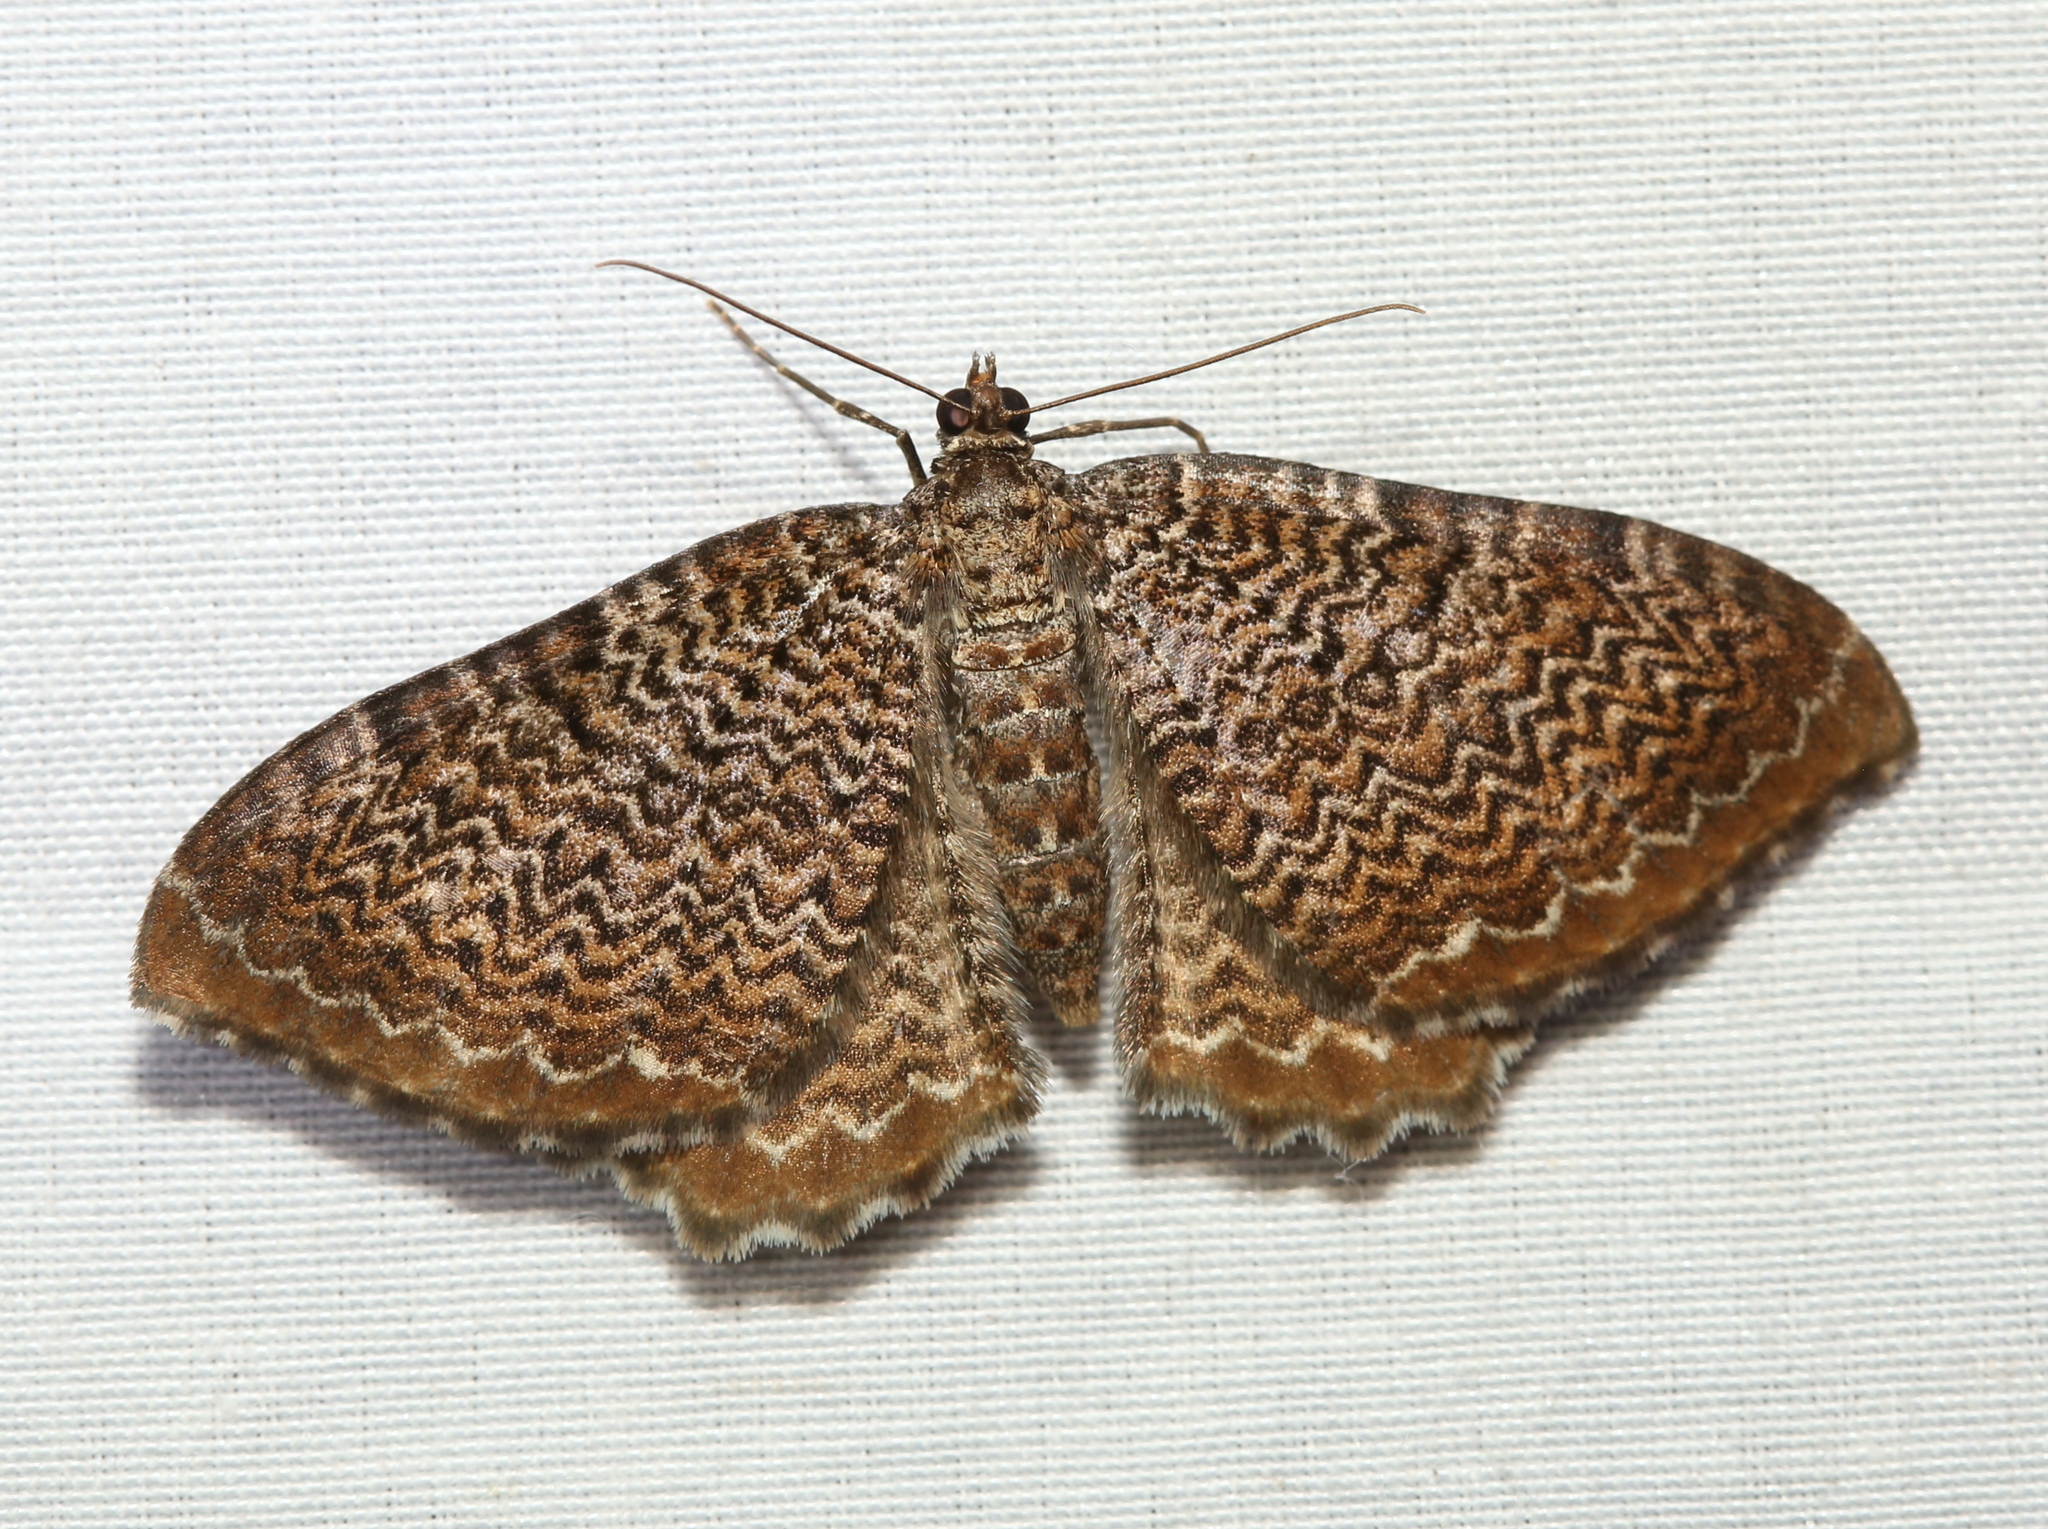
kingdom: Animalia
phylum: Arthropoda
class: Insecta
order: Lepidoptera
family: Geometridae
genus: Rheumaptera
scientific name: Rheumaptera
